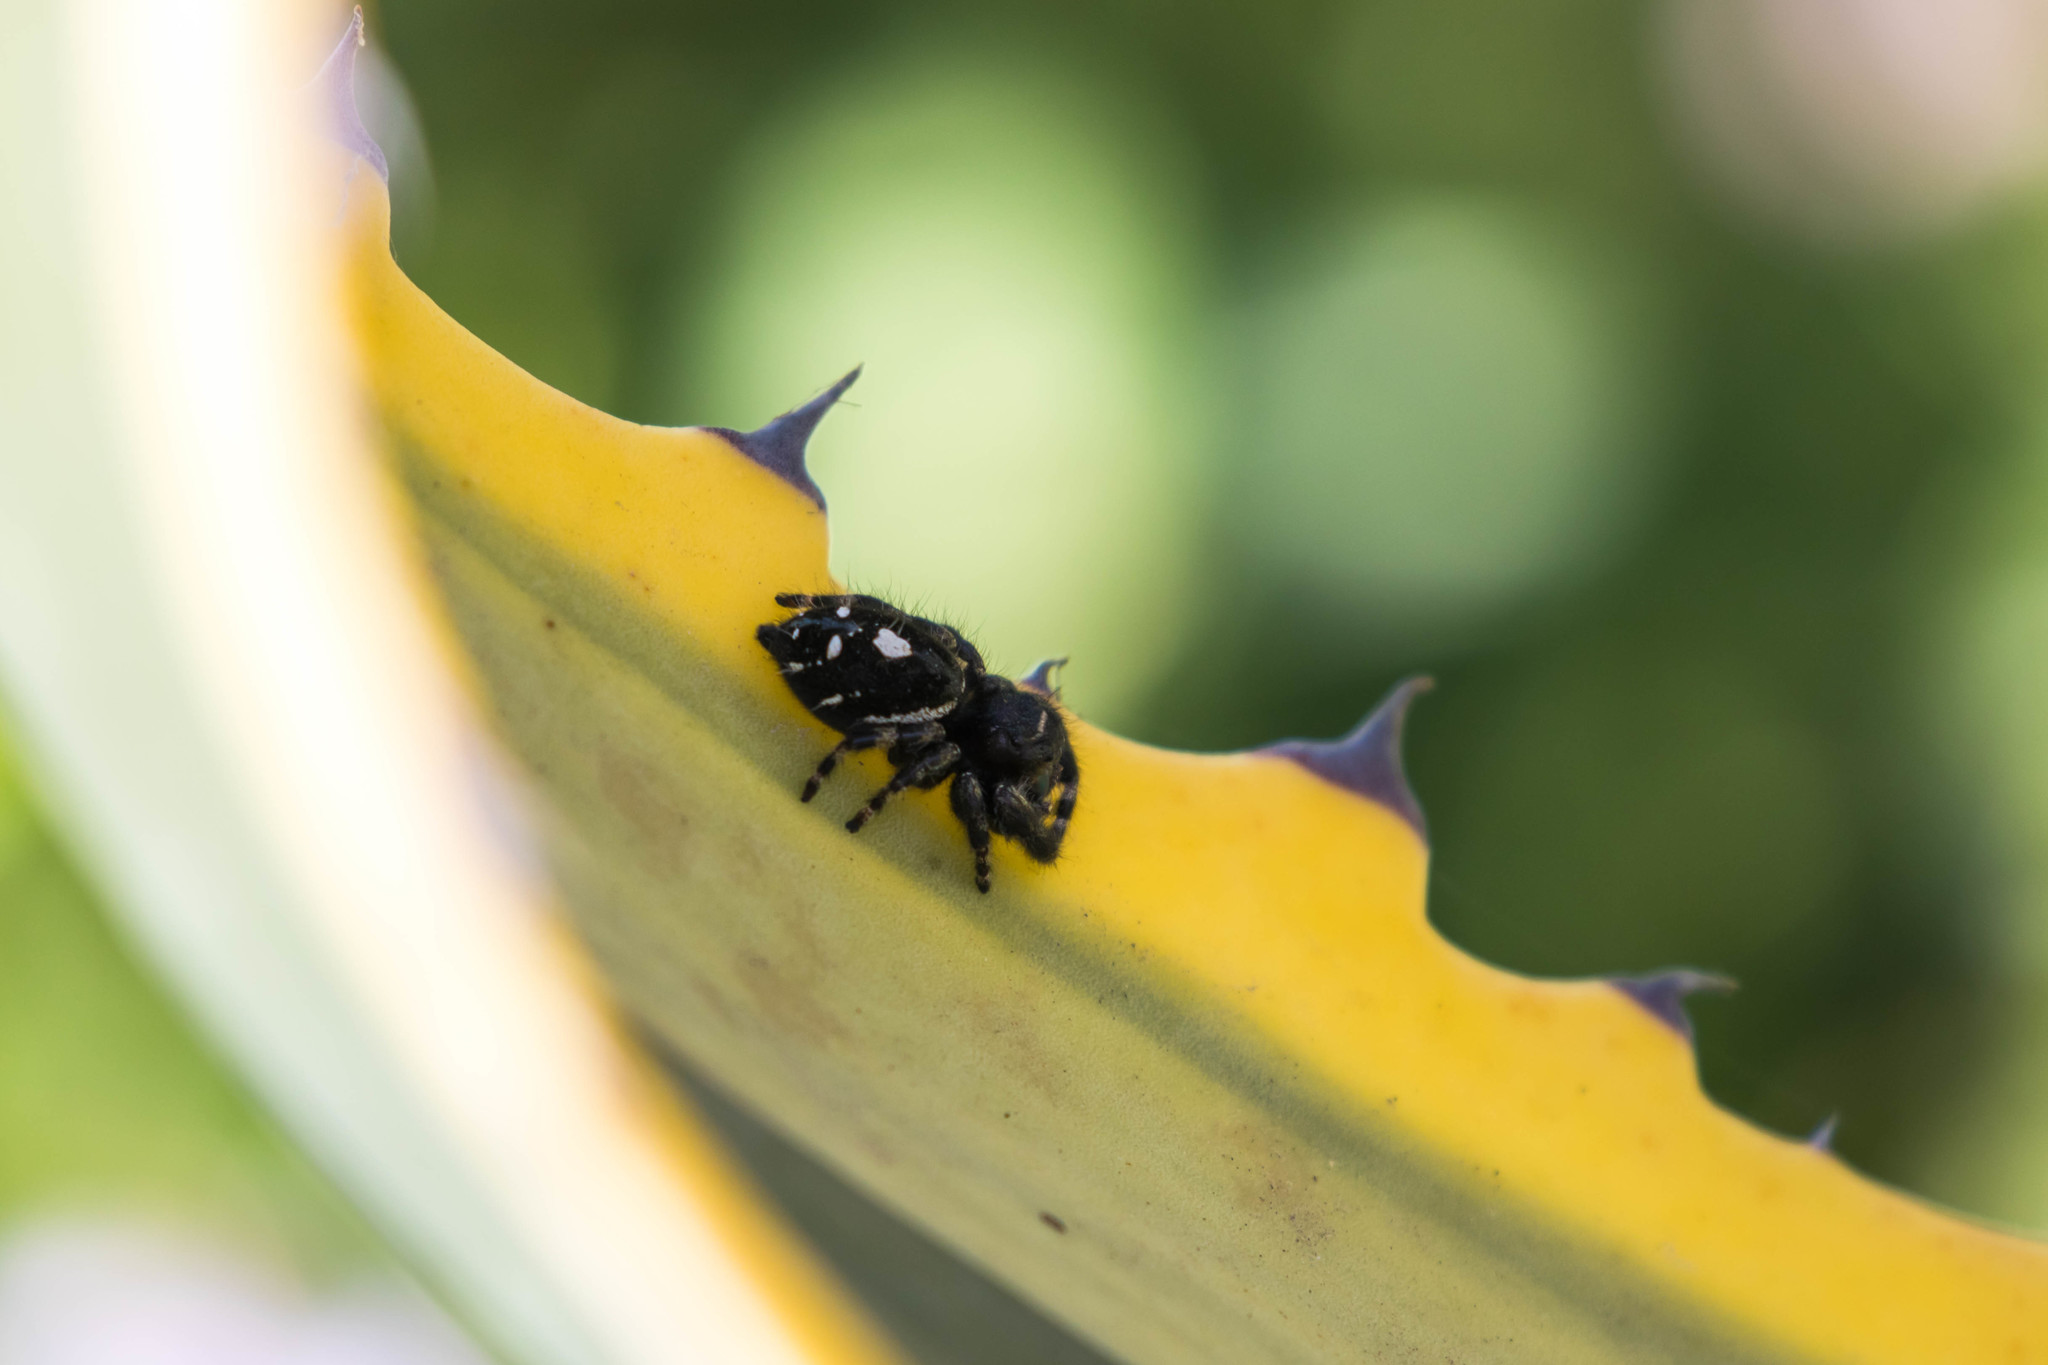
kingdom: Animalia
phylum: Arthropoda
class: Arachnida
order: Araneae
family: Salticidae
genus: Phidippus
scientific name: Phidippus audax
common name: Bold jumper
